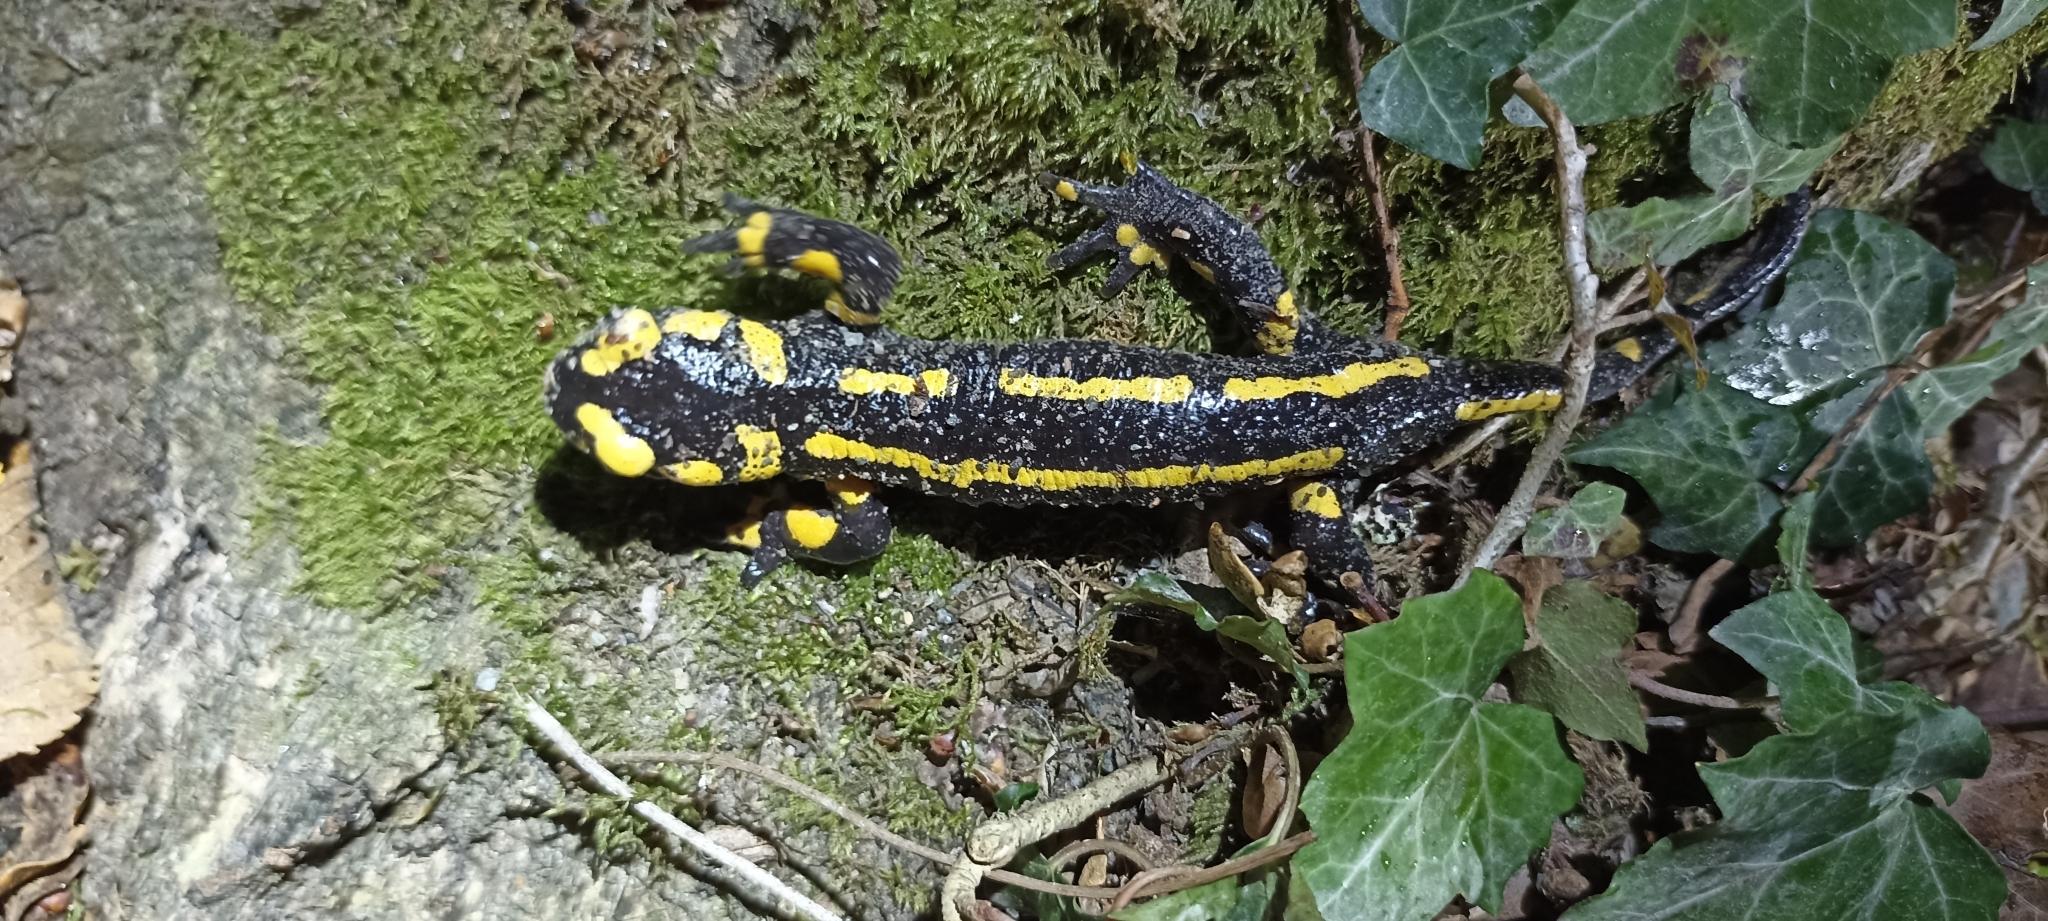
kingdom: Animalia
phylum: Chordata
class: Amphibia
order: Caudata
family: Salamandridae
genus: Salamandra
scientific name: Salamandra salamandra
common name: Fire salamander
